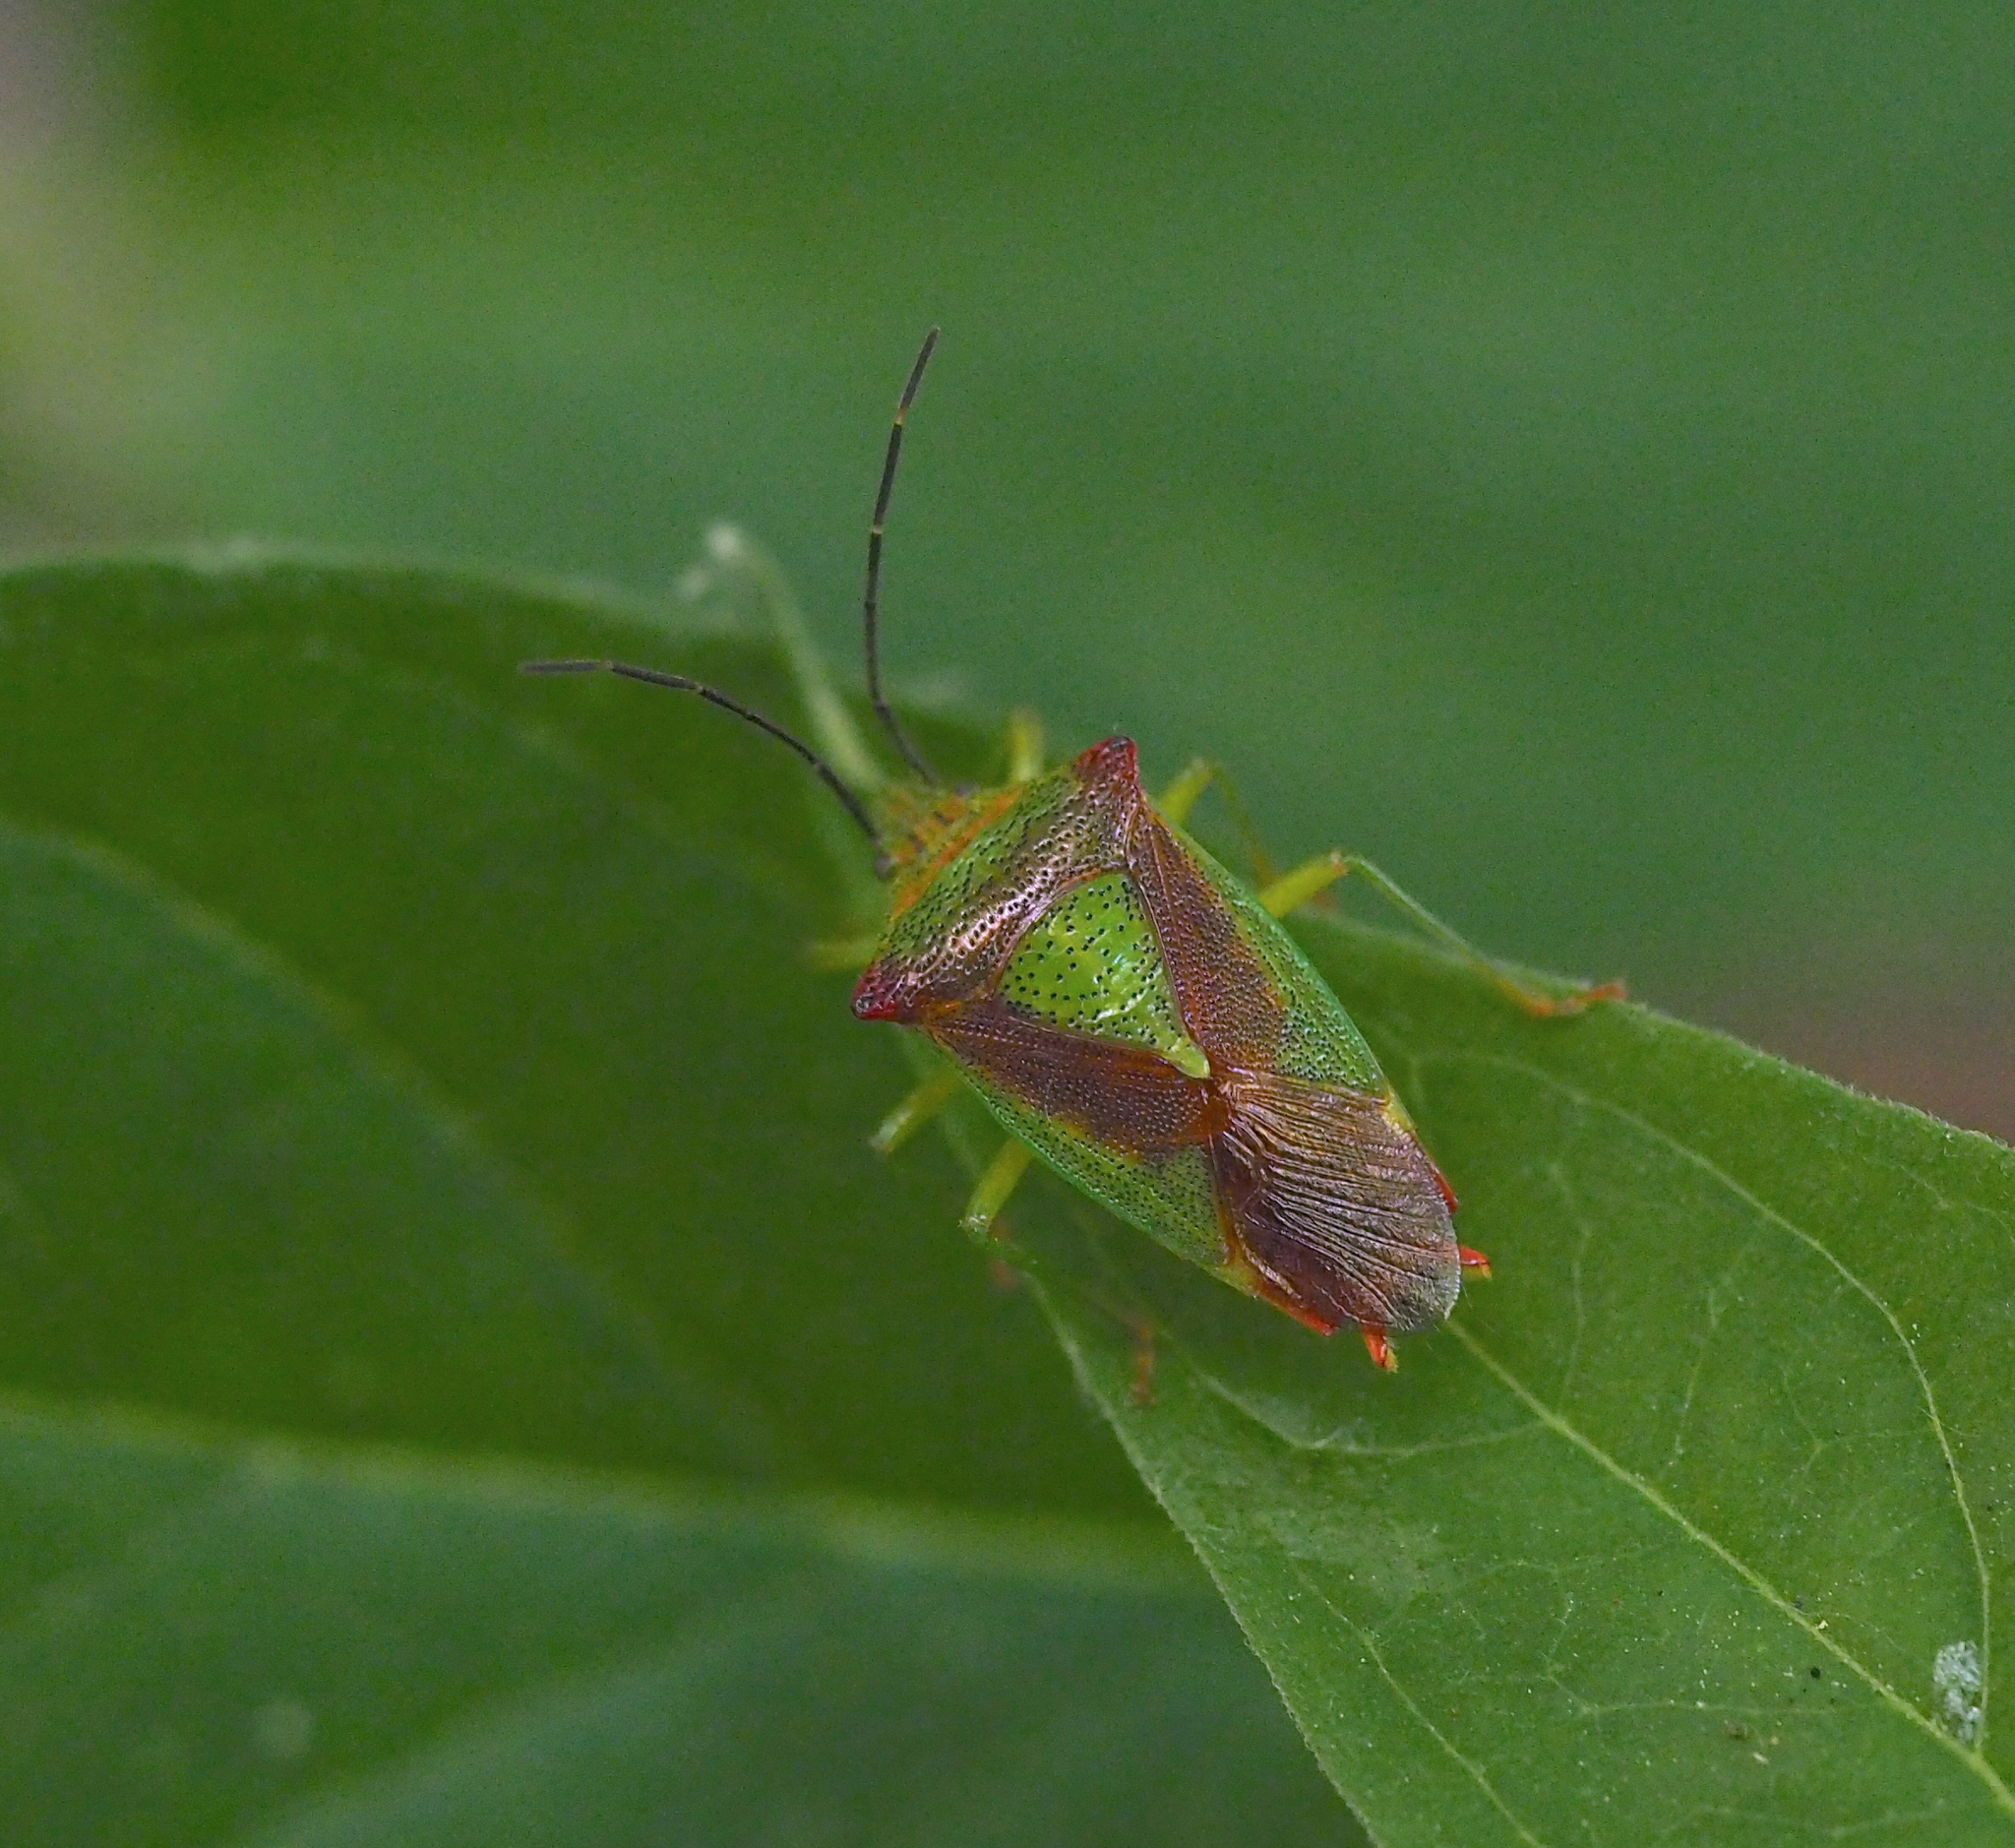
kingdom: Animalia
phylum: Arthropoda
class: Insecta
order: Hemiptera
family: Acanthosomatidae
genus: Acanthosoma
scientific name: Acanthosoma haemorrhoidale
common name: Hawthorn shieldbug
